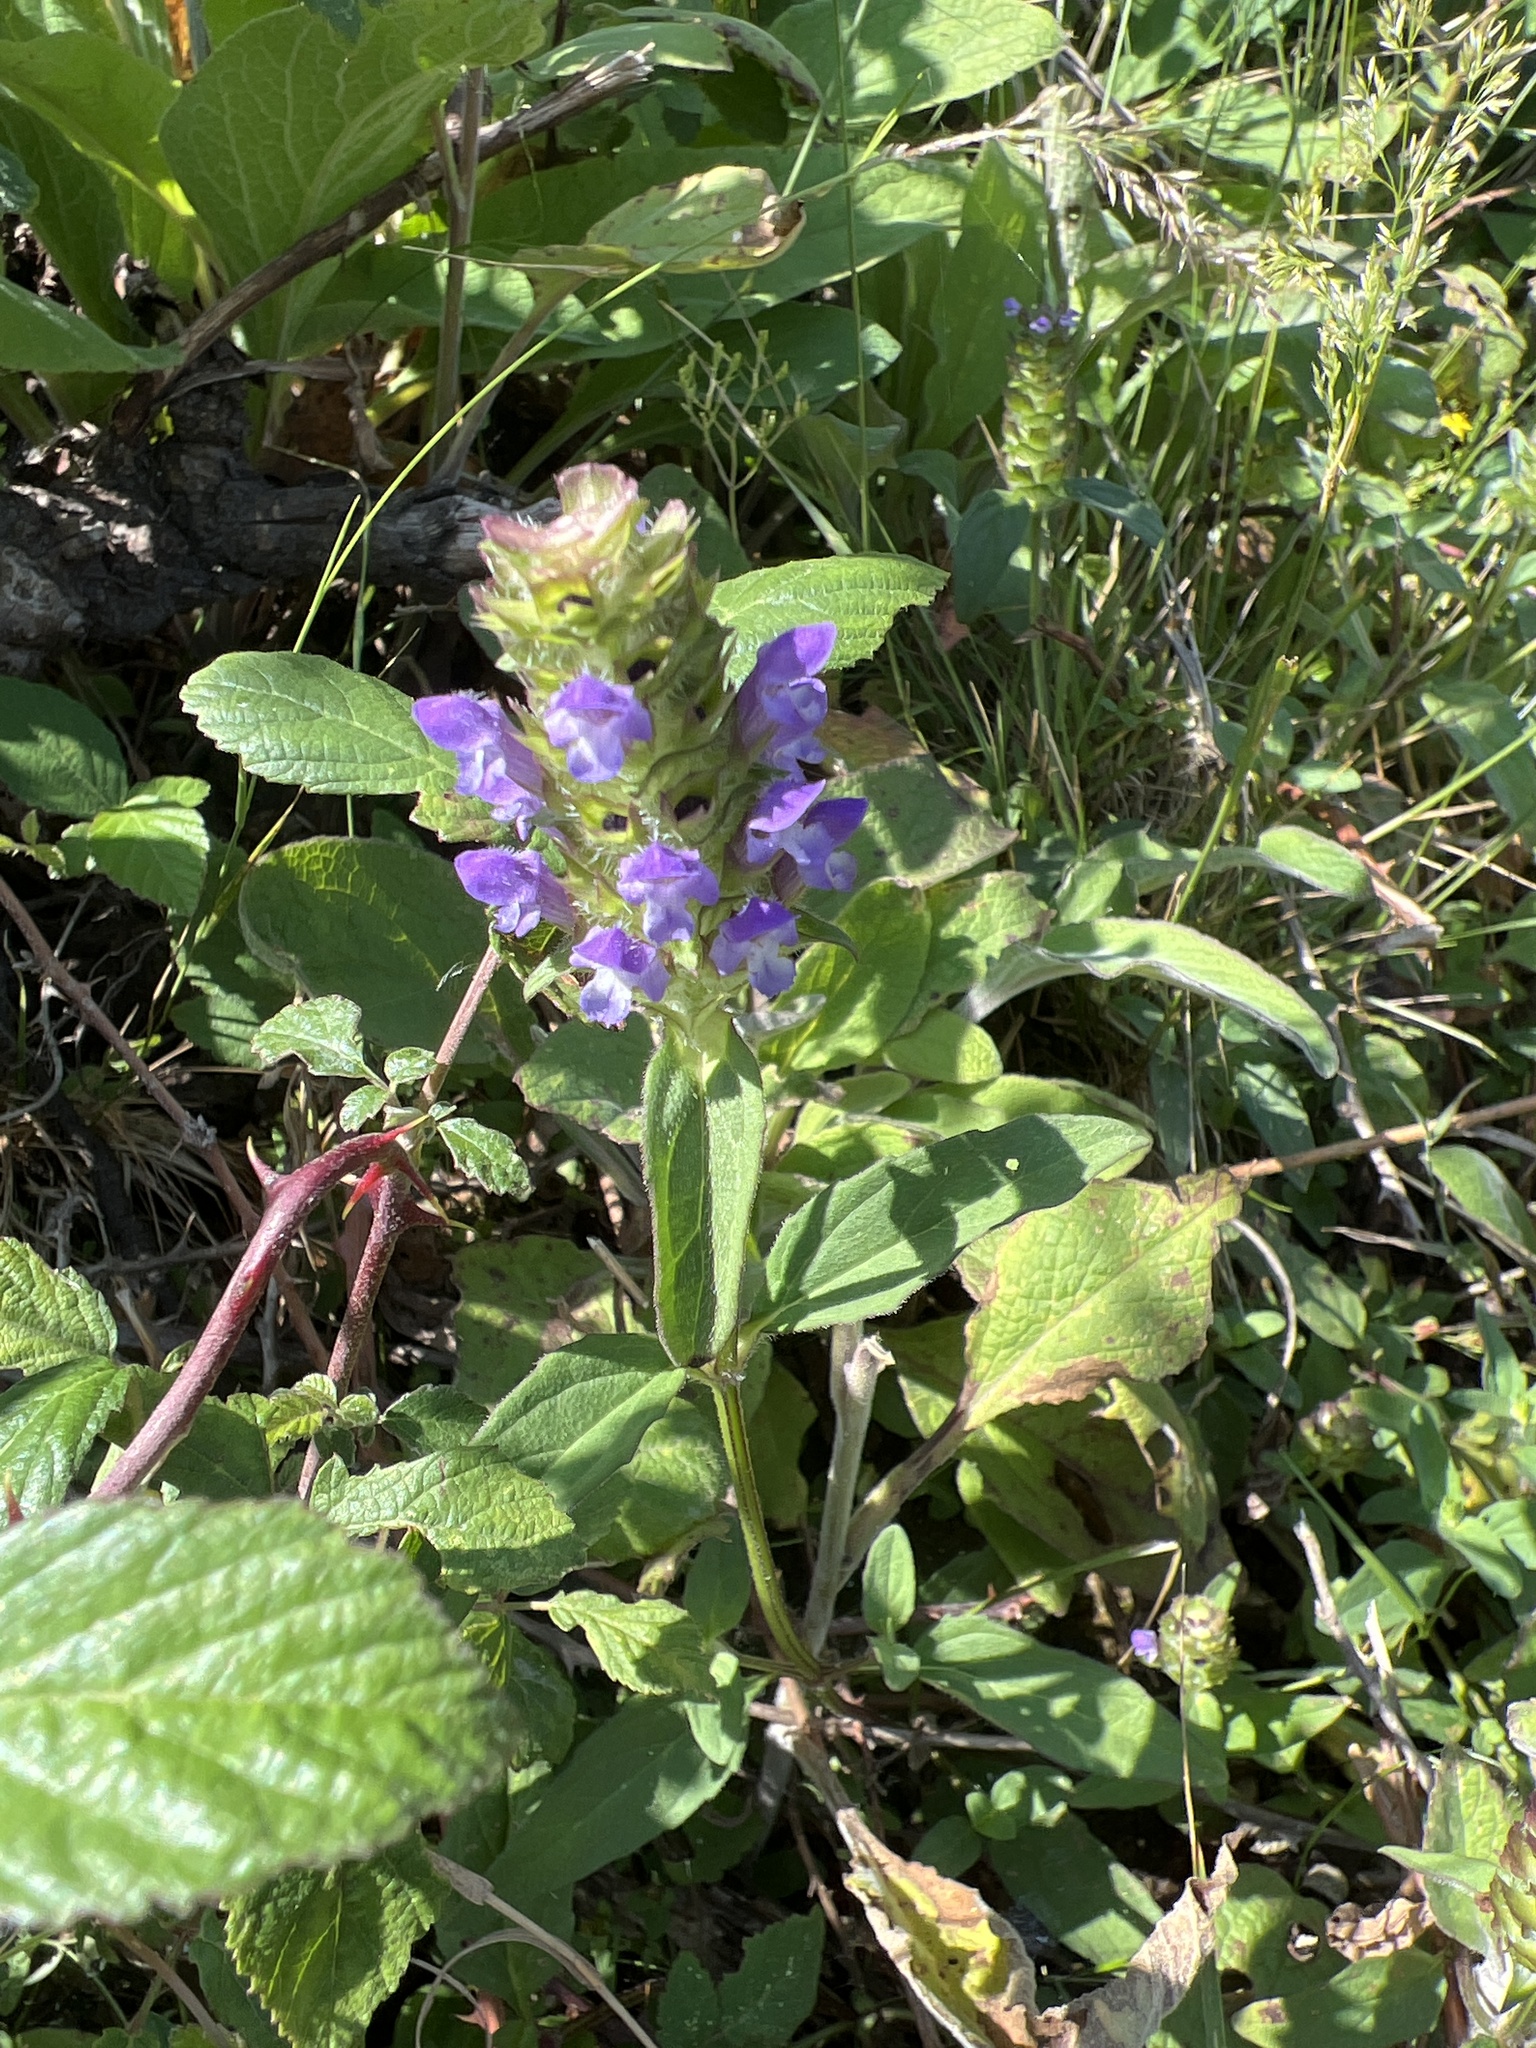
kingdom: Plantae
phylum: Tracheophyta
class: Magnoliopsida
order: Lamiales
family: Lamiaceae
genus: Prunella
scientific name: Prunella vulgaris
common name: Heal-all
